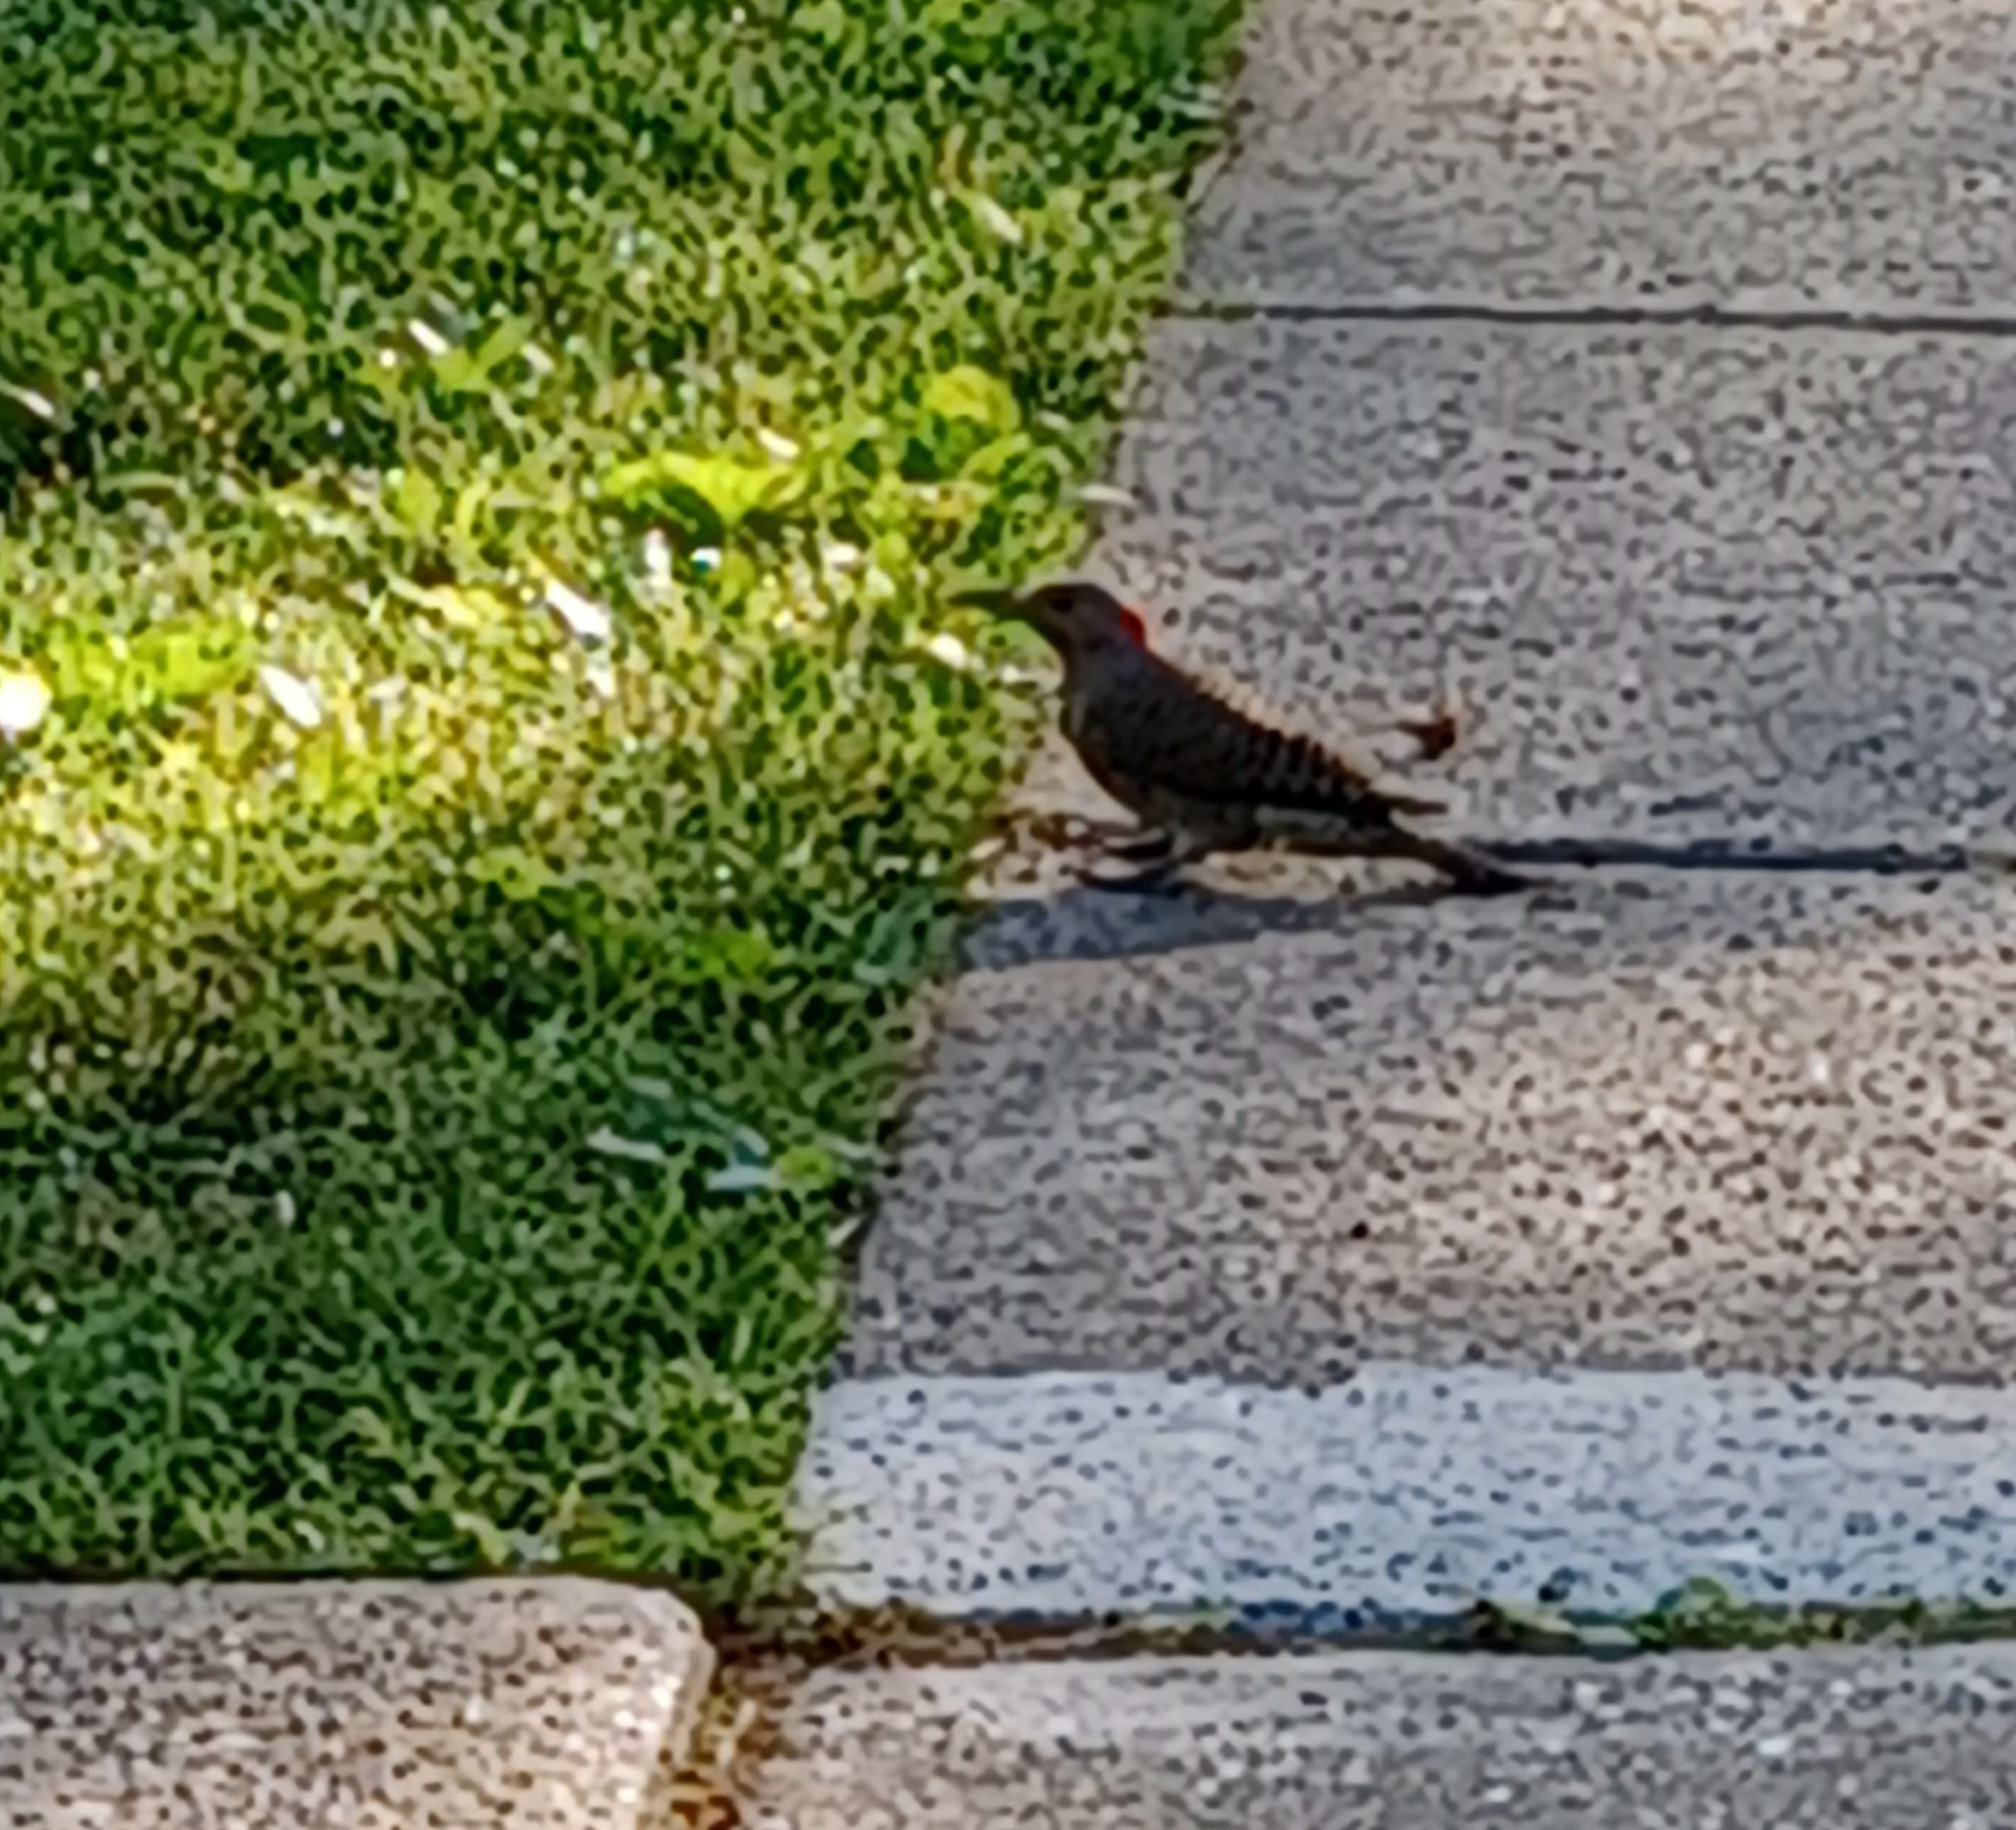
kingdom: Animalia
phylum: Chordata
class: Aves
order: Piciformes
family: Picidae
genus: Colaptes
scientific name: Colaptes auratus
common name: Northern flicker
